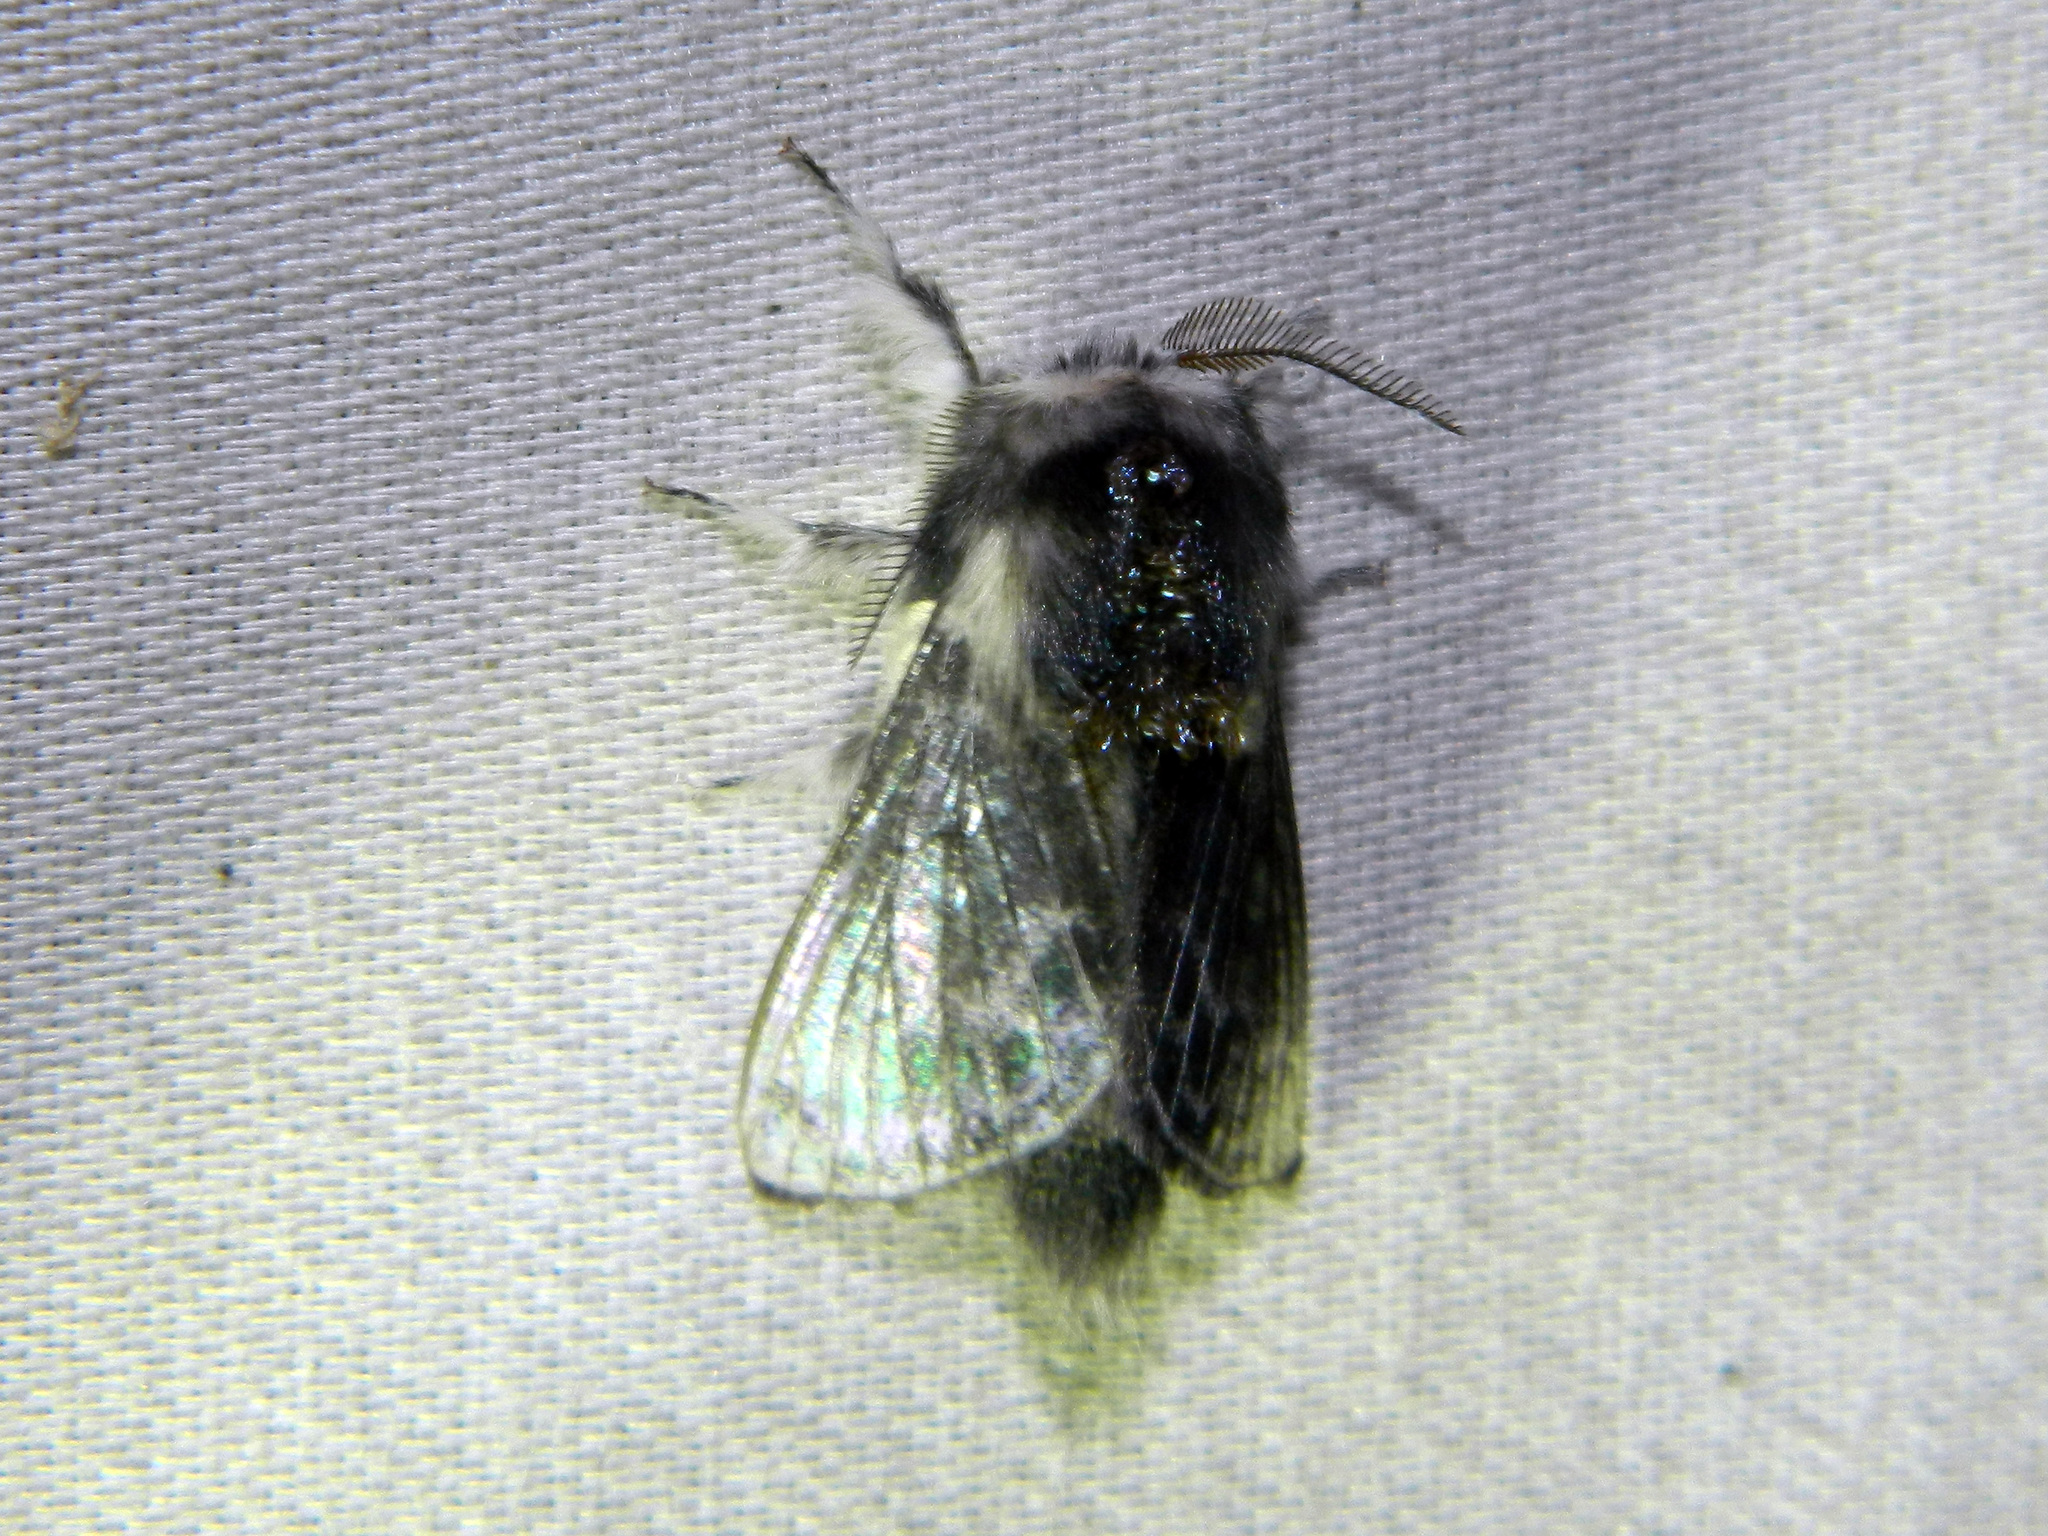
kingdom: Animalia
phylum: Arthropoda
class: Insecta
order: Lepidoptera
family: Lasiocampidae
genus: Tolype
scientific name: Tolype laricis
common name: Larch tolype moth
